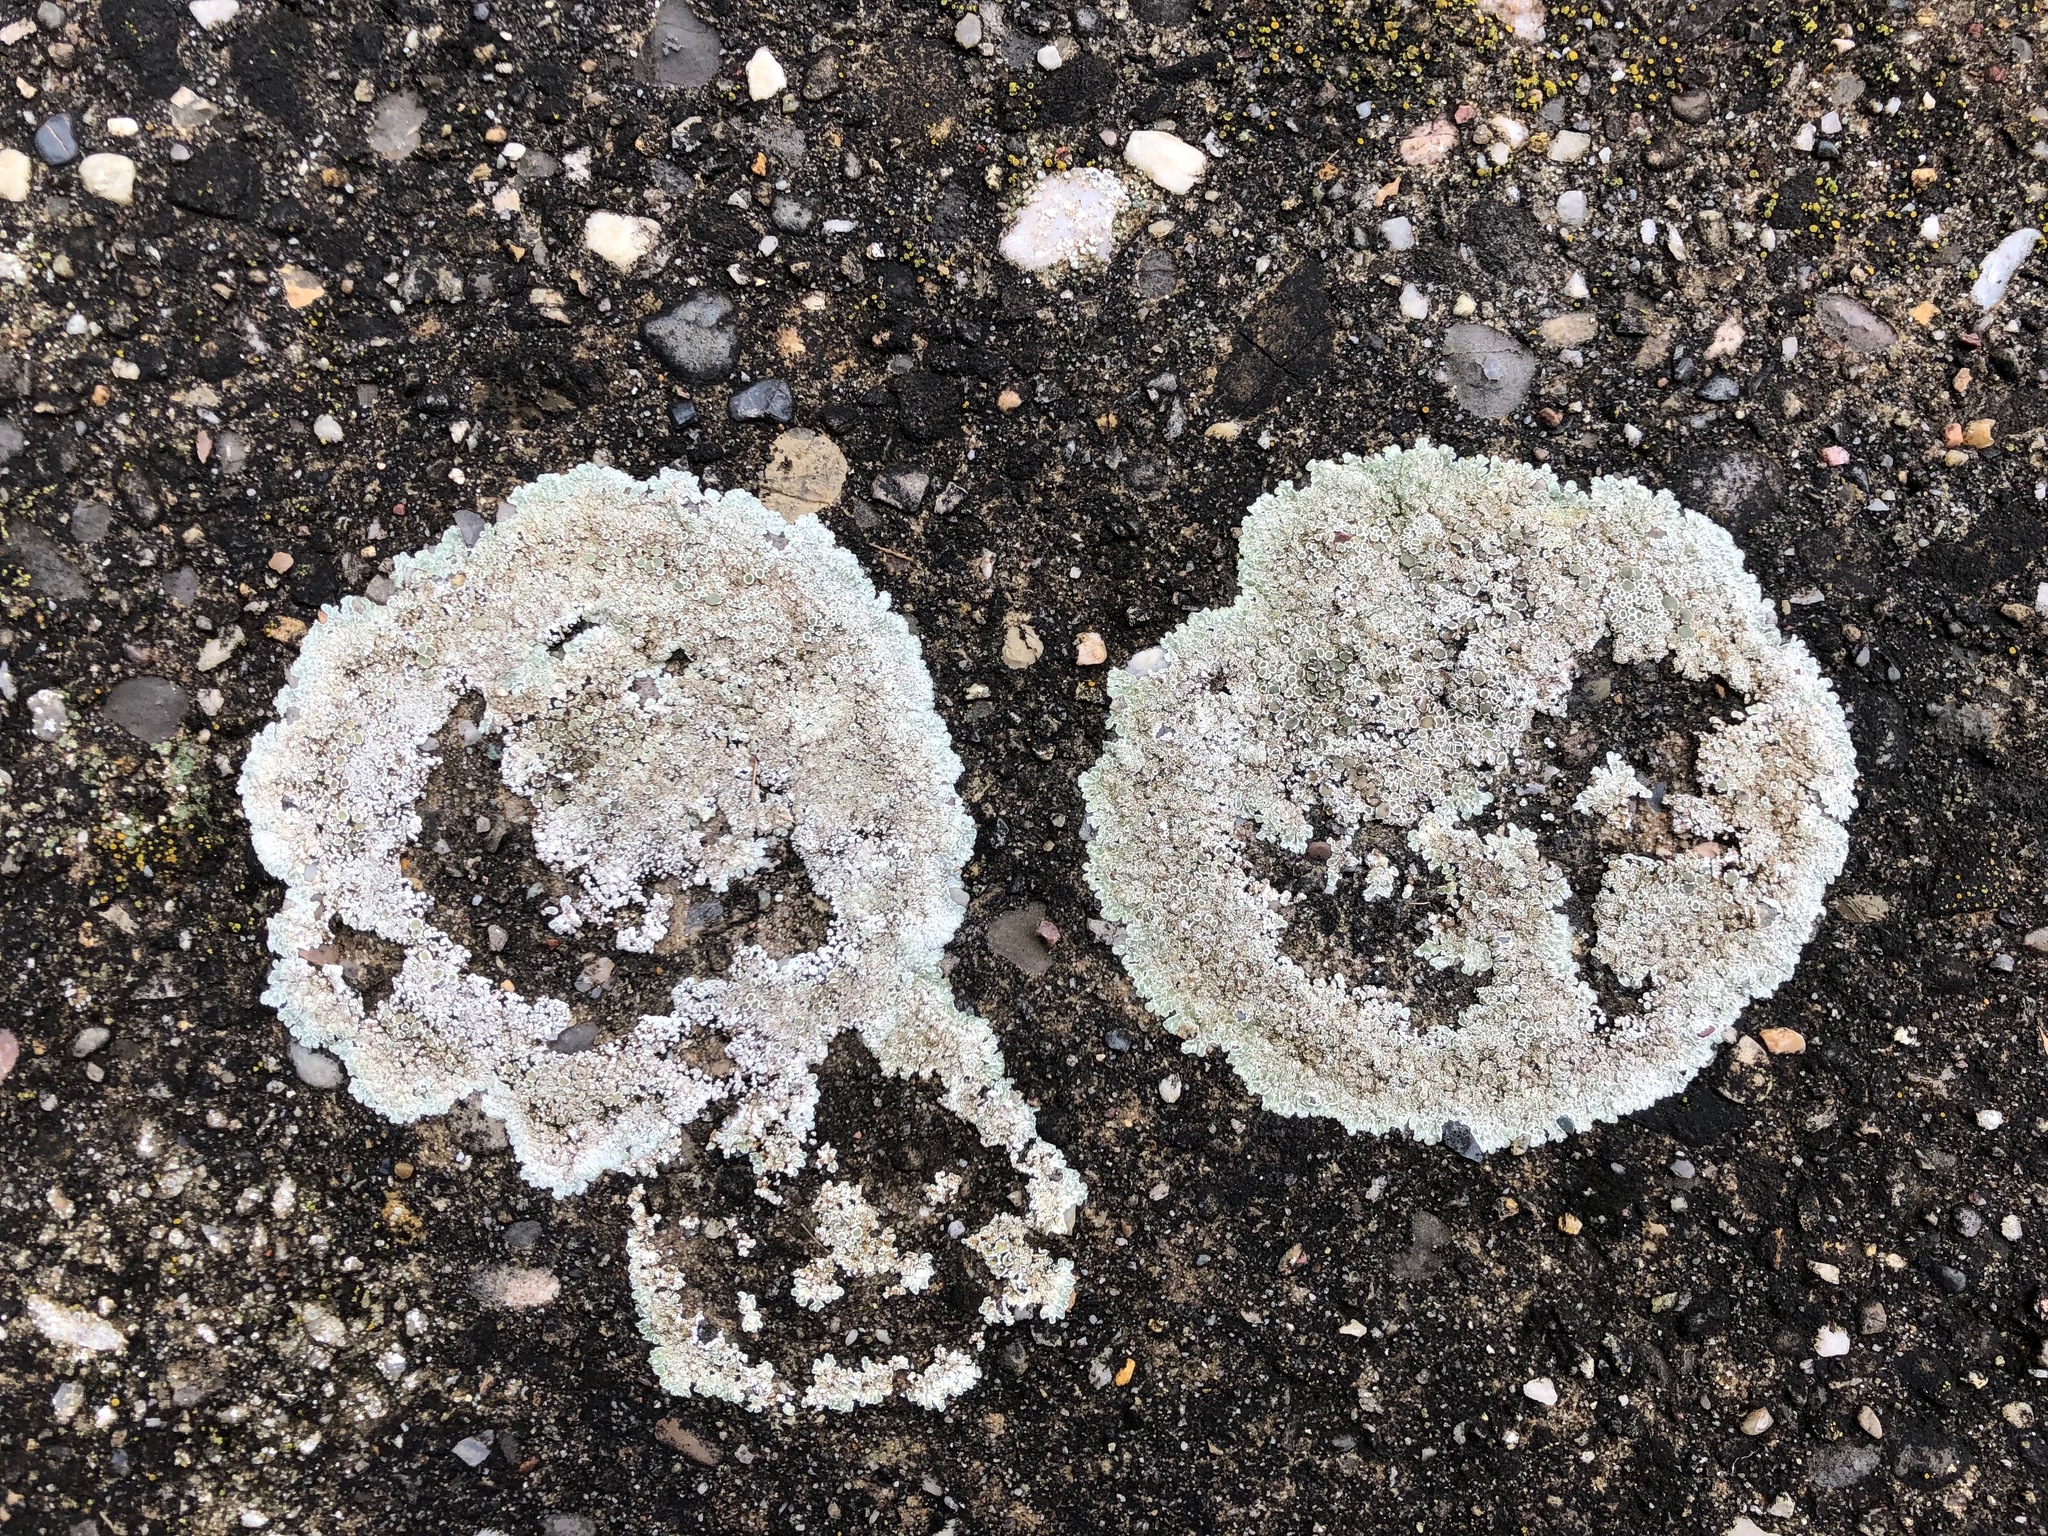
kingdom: Fungi
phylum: Ascomycota
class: Lecanoromycetes
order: Lecanorales
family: Lecanoraceae
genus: Protoparmeliopsis
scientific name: Protoparmeliopsis muralis
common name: Stonewall rim lichen
